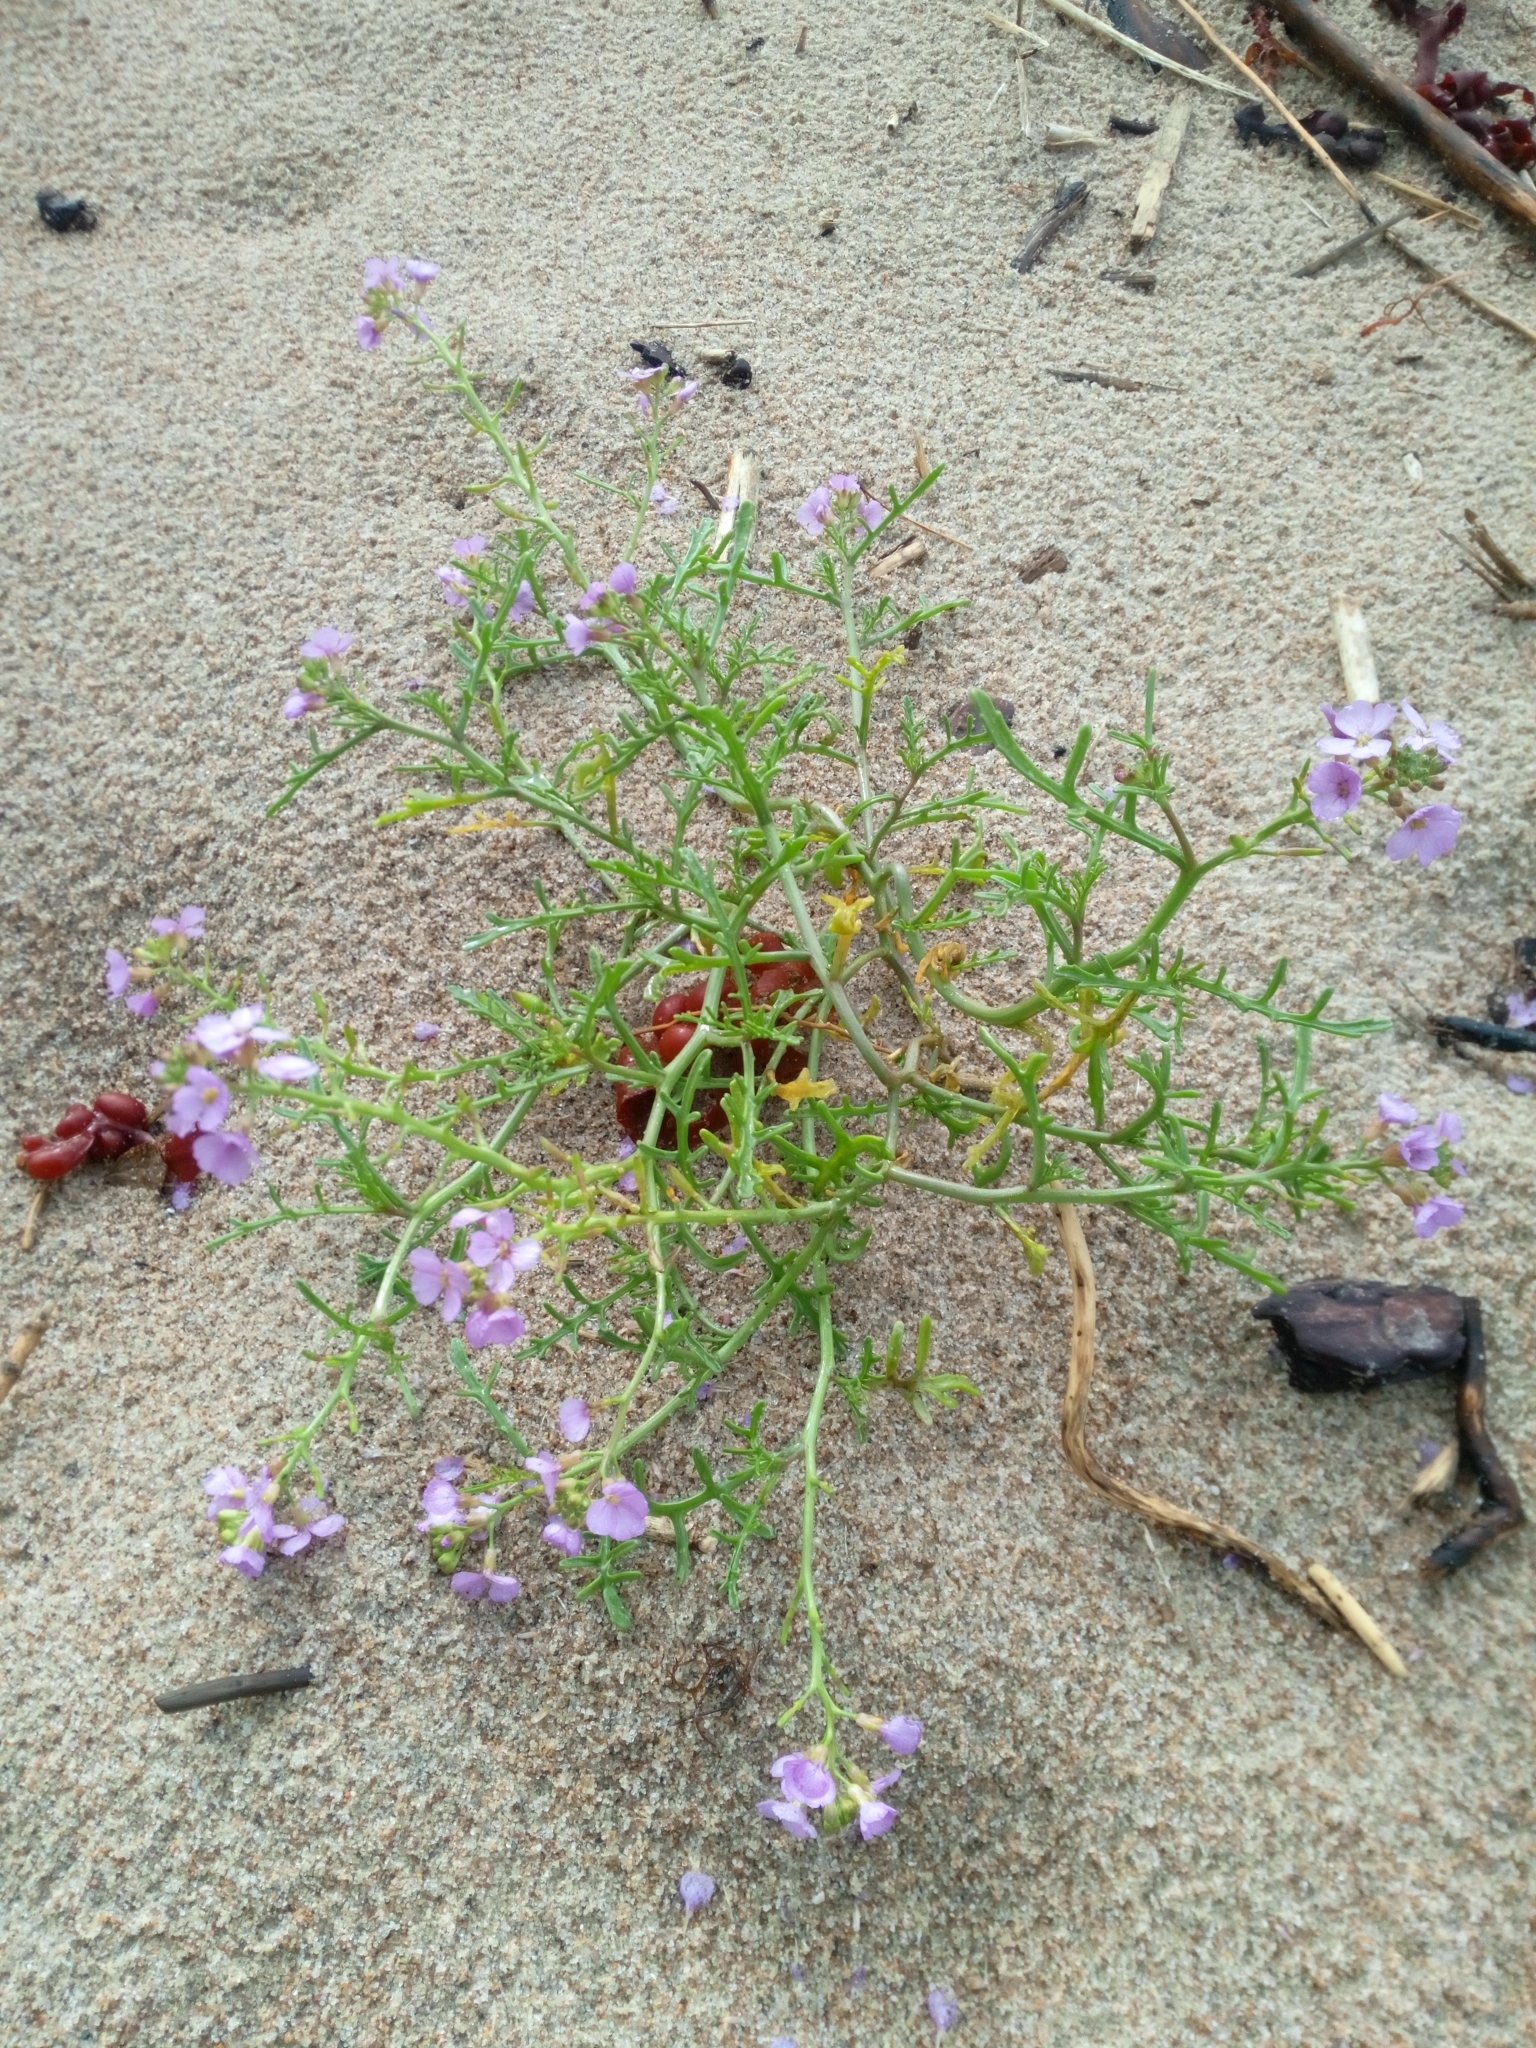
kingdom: Plantae
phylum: Tracheophyta
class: Magnoliopsida
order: Brassicales
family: Brassicaceae
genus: Cakile
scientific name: Cakile maritima
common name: Sea rocket
